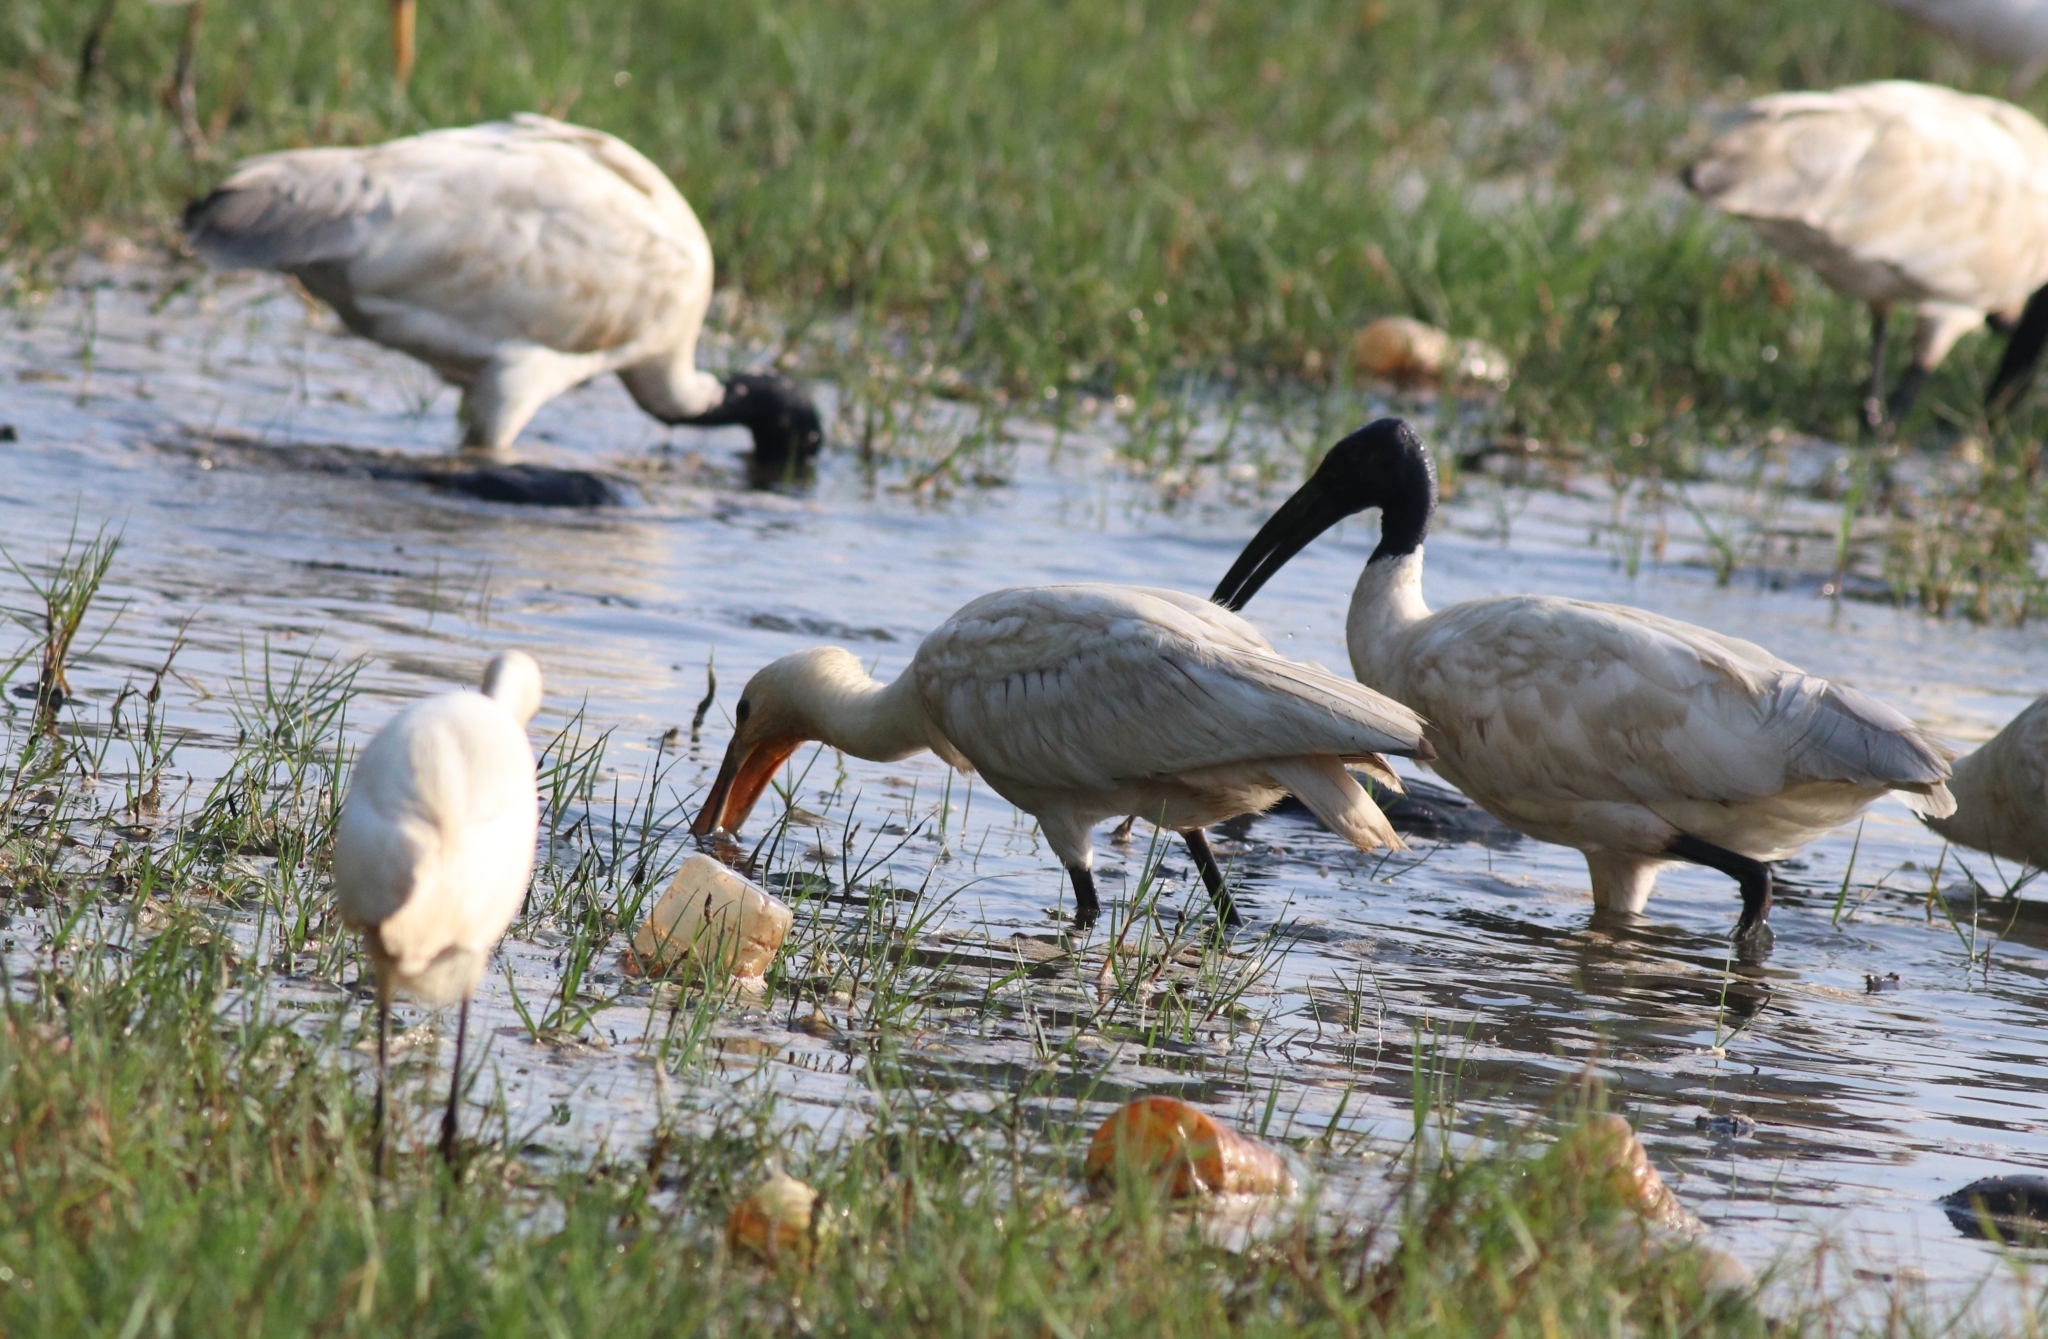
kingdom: Animalia
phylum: Chordata
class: Aves
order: Pelecaniformes
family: Threskiornithidae
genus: Platalea
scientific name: Platalea leucorodia
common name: Eurasian spoonbill
